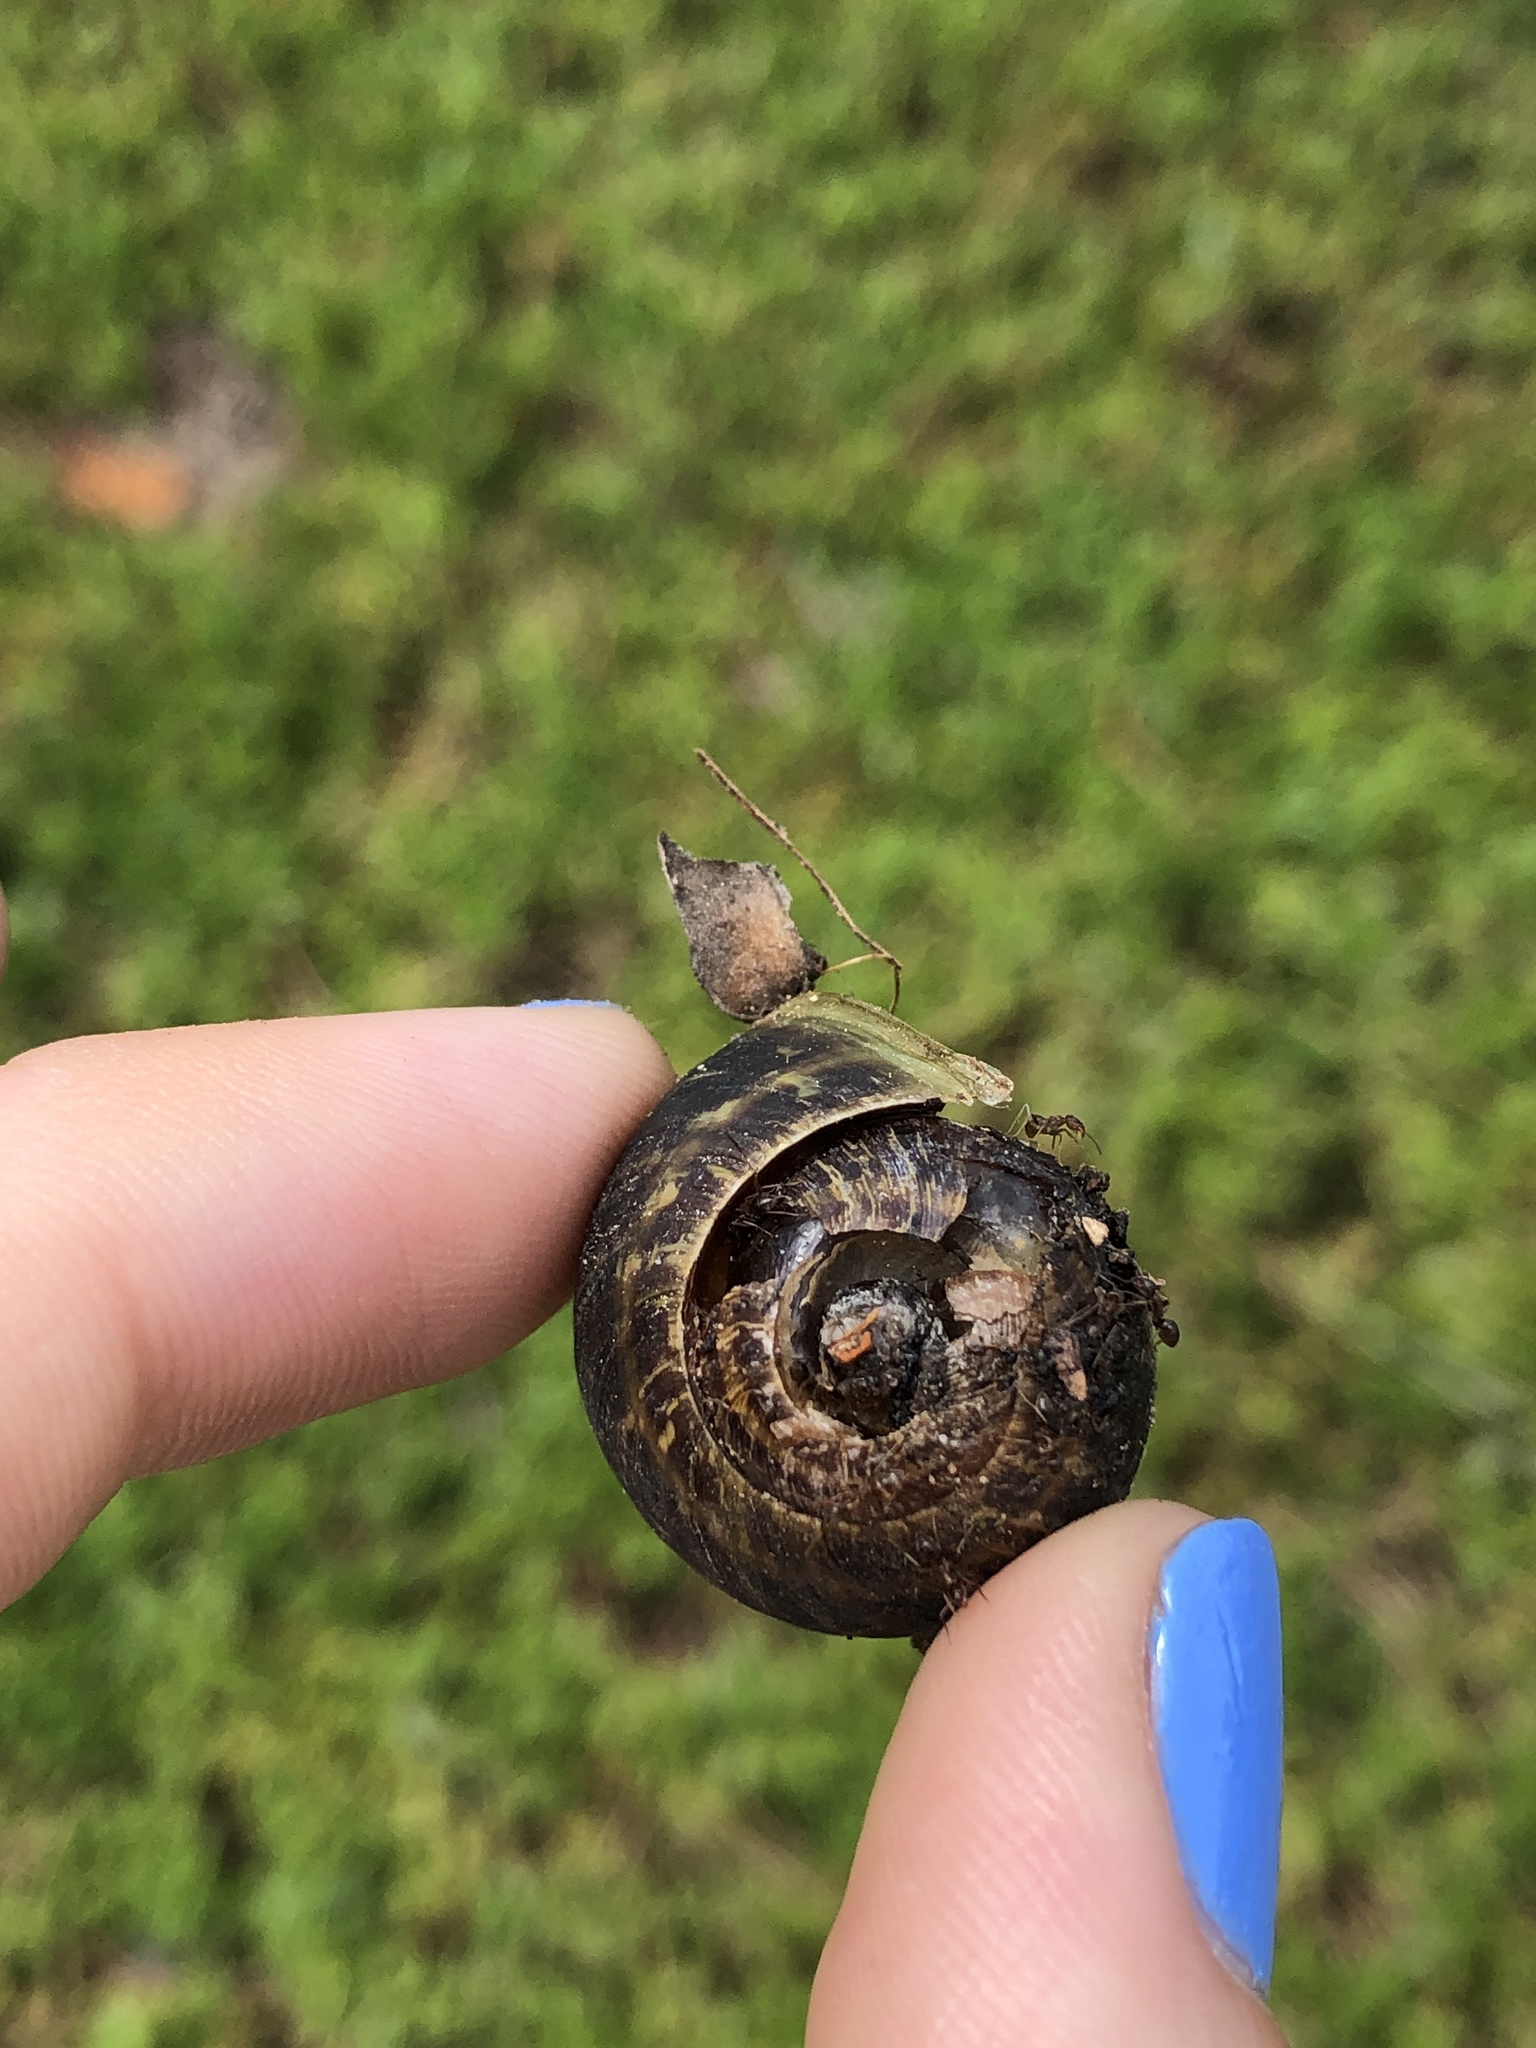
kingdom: Animalia
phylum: Mollusca
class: Gastropoda
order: Stylommatophora
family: Helicidae
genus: Cornu
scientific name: Cornu aspersum
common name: Brown garden snail
